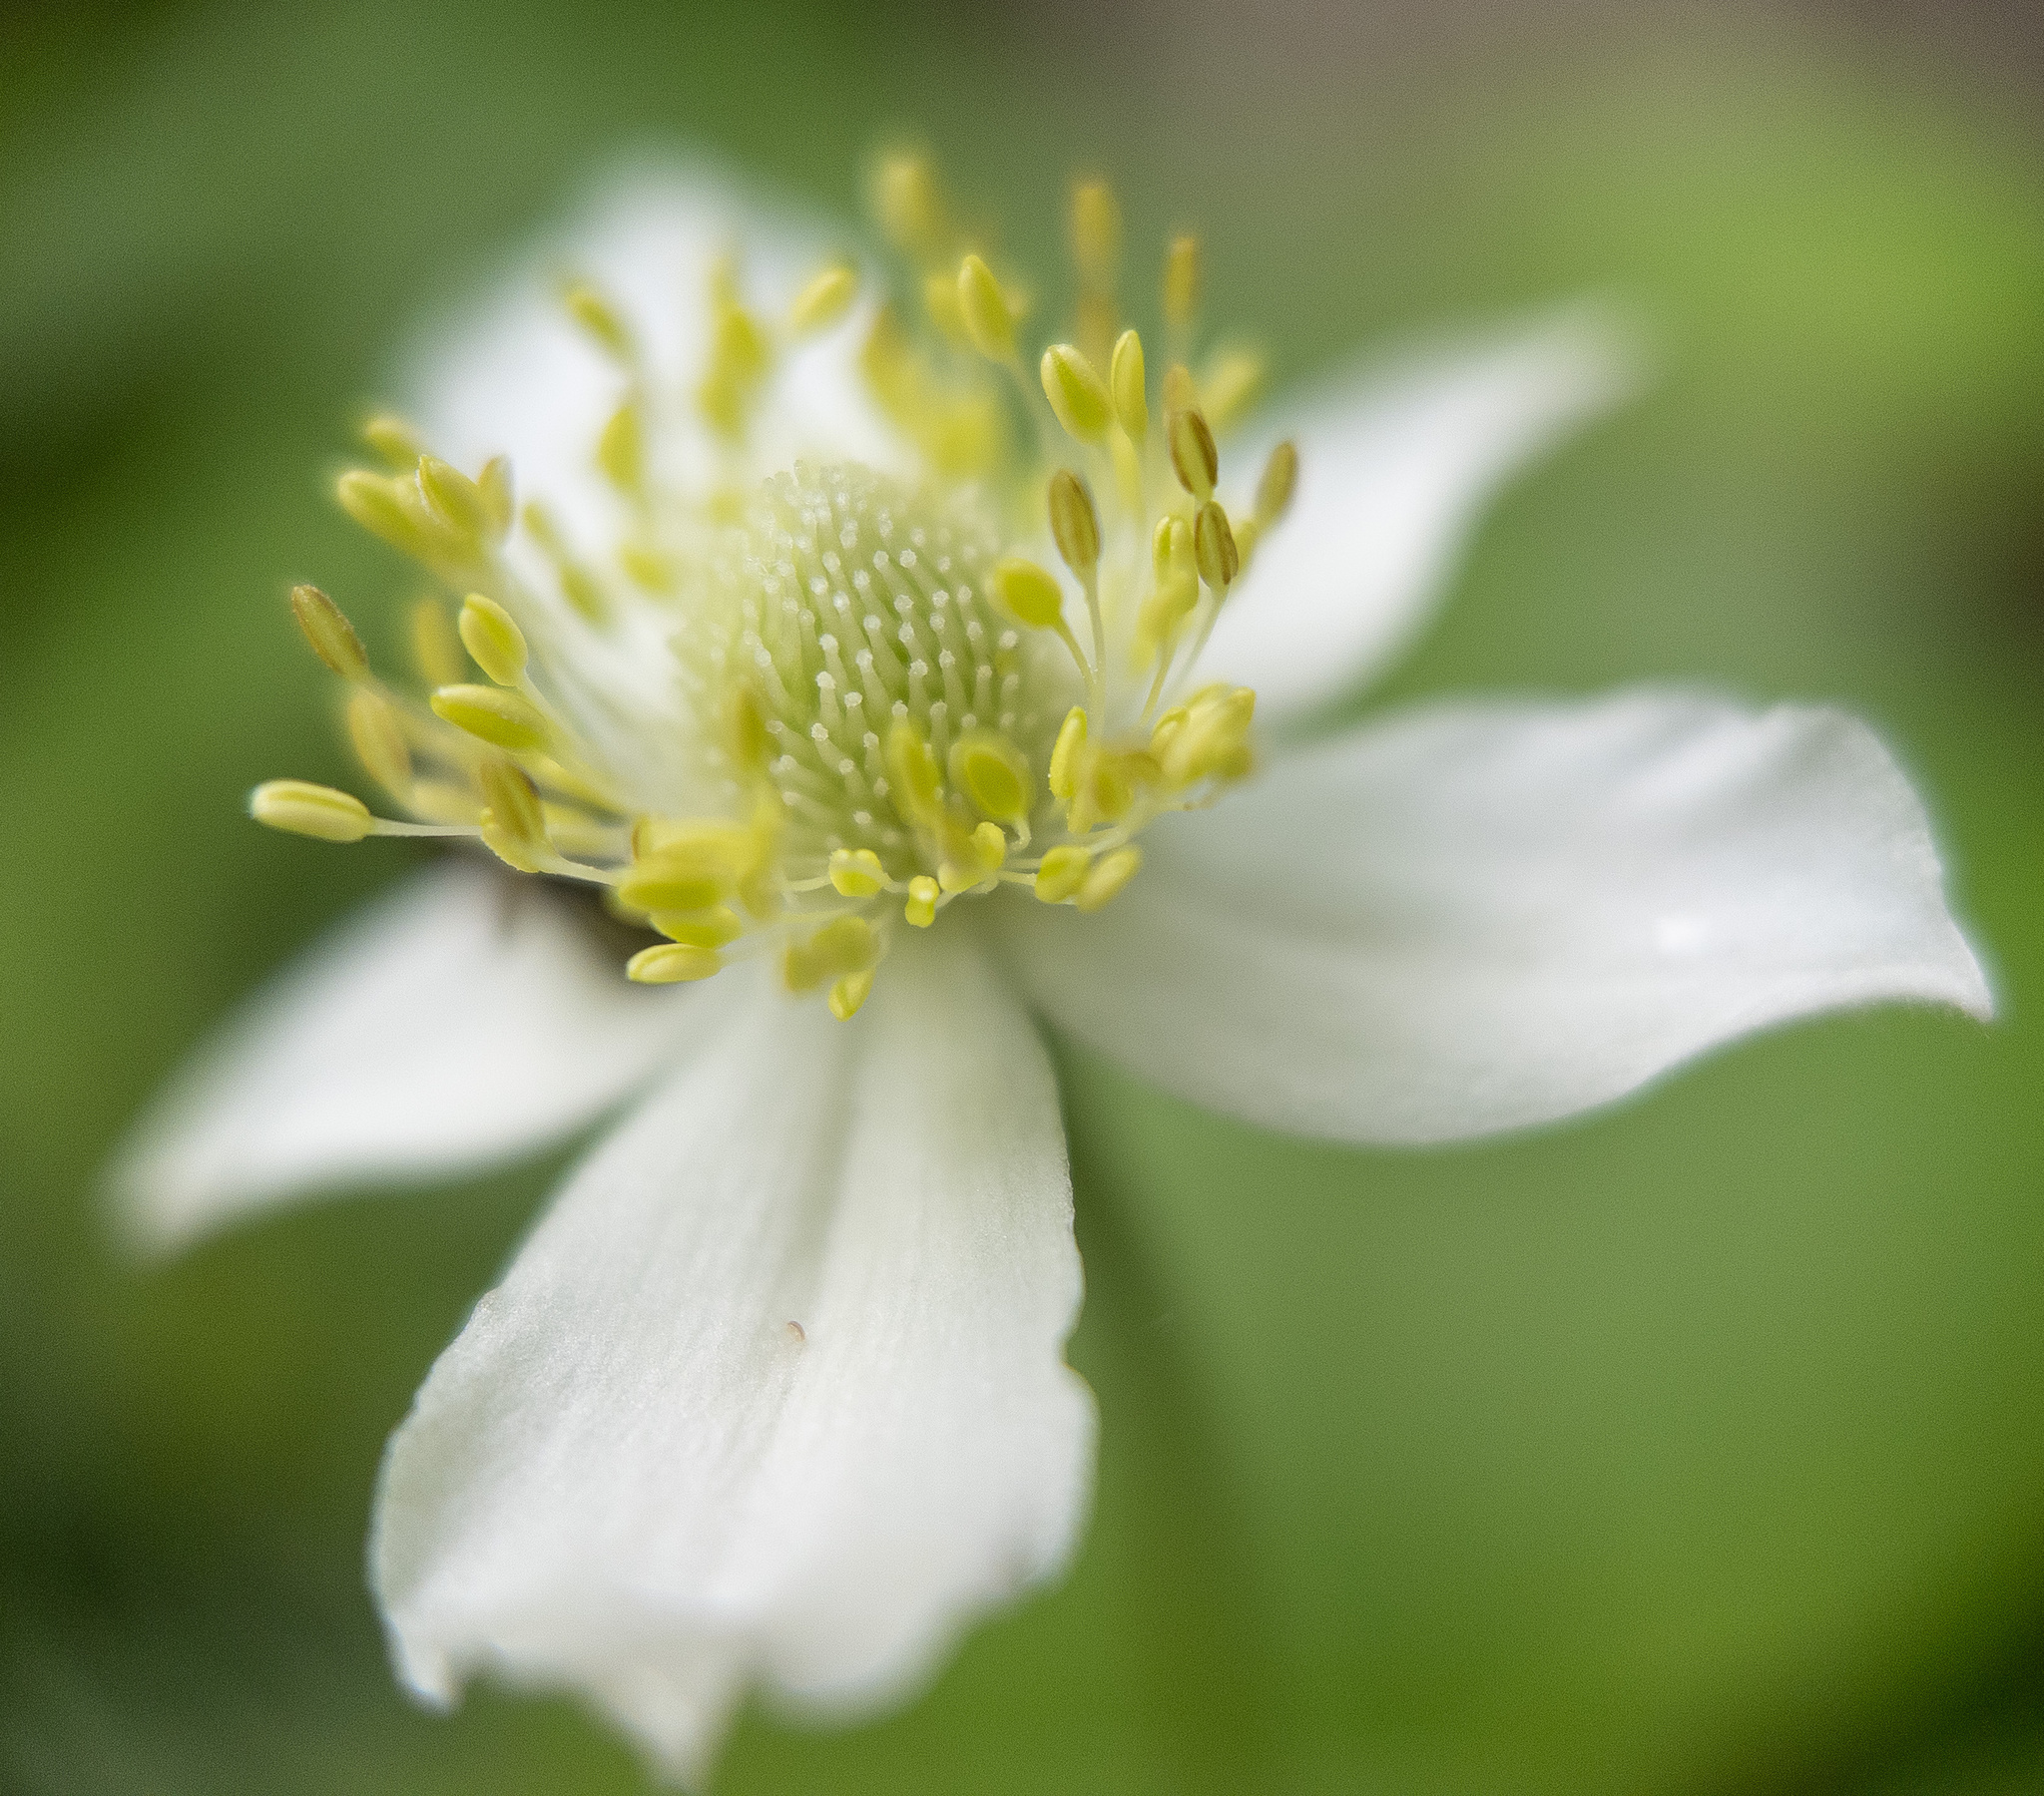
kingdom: Plantae
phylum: Tracheophyta
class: Magnoliopsida
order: Ranunculales
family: Ranunculaceae
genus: Anemone
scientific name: Anemone virginiana
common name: Tall anemone
